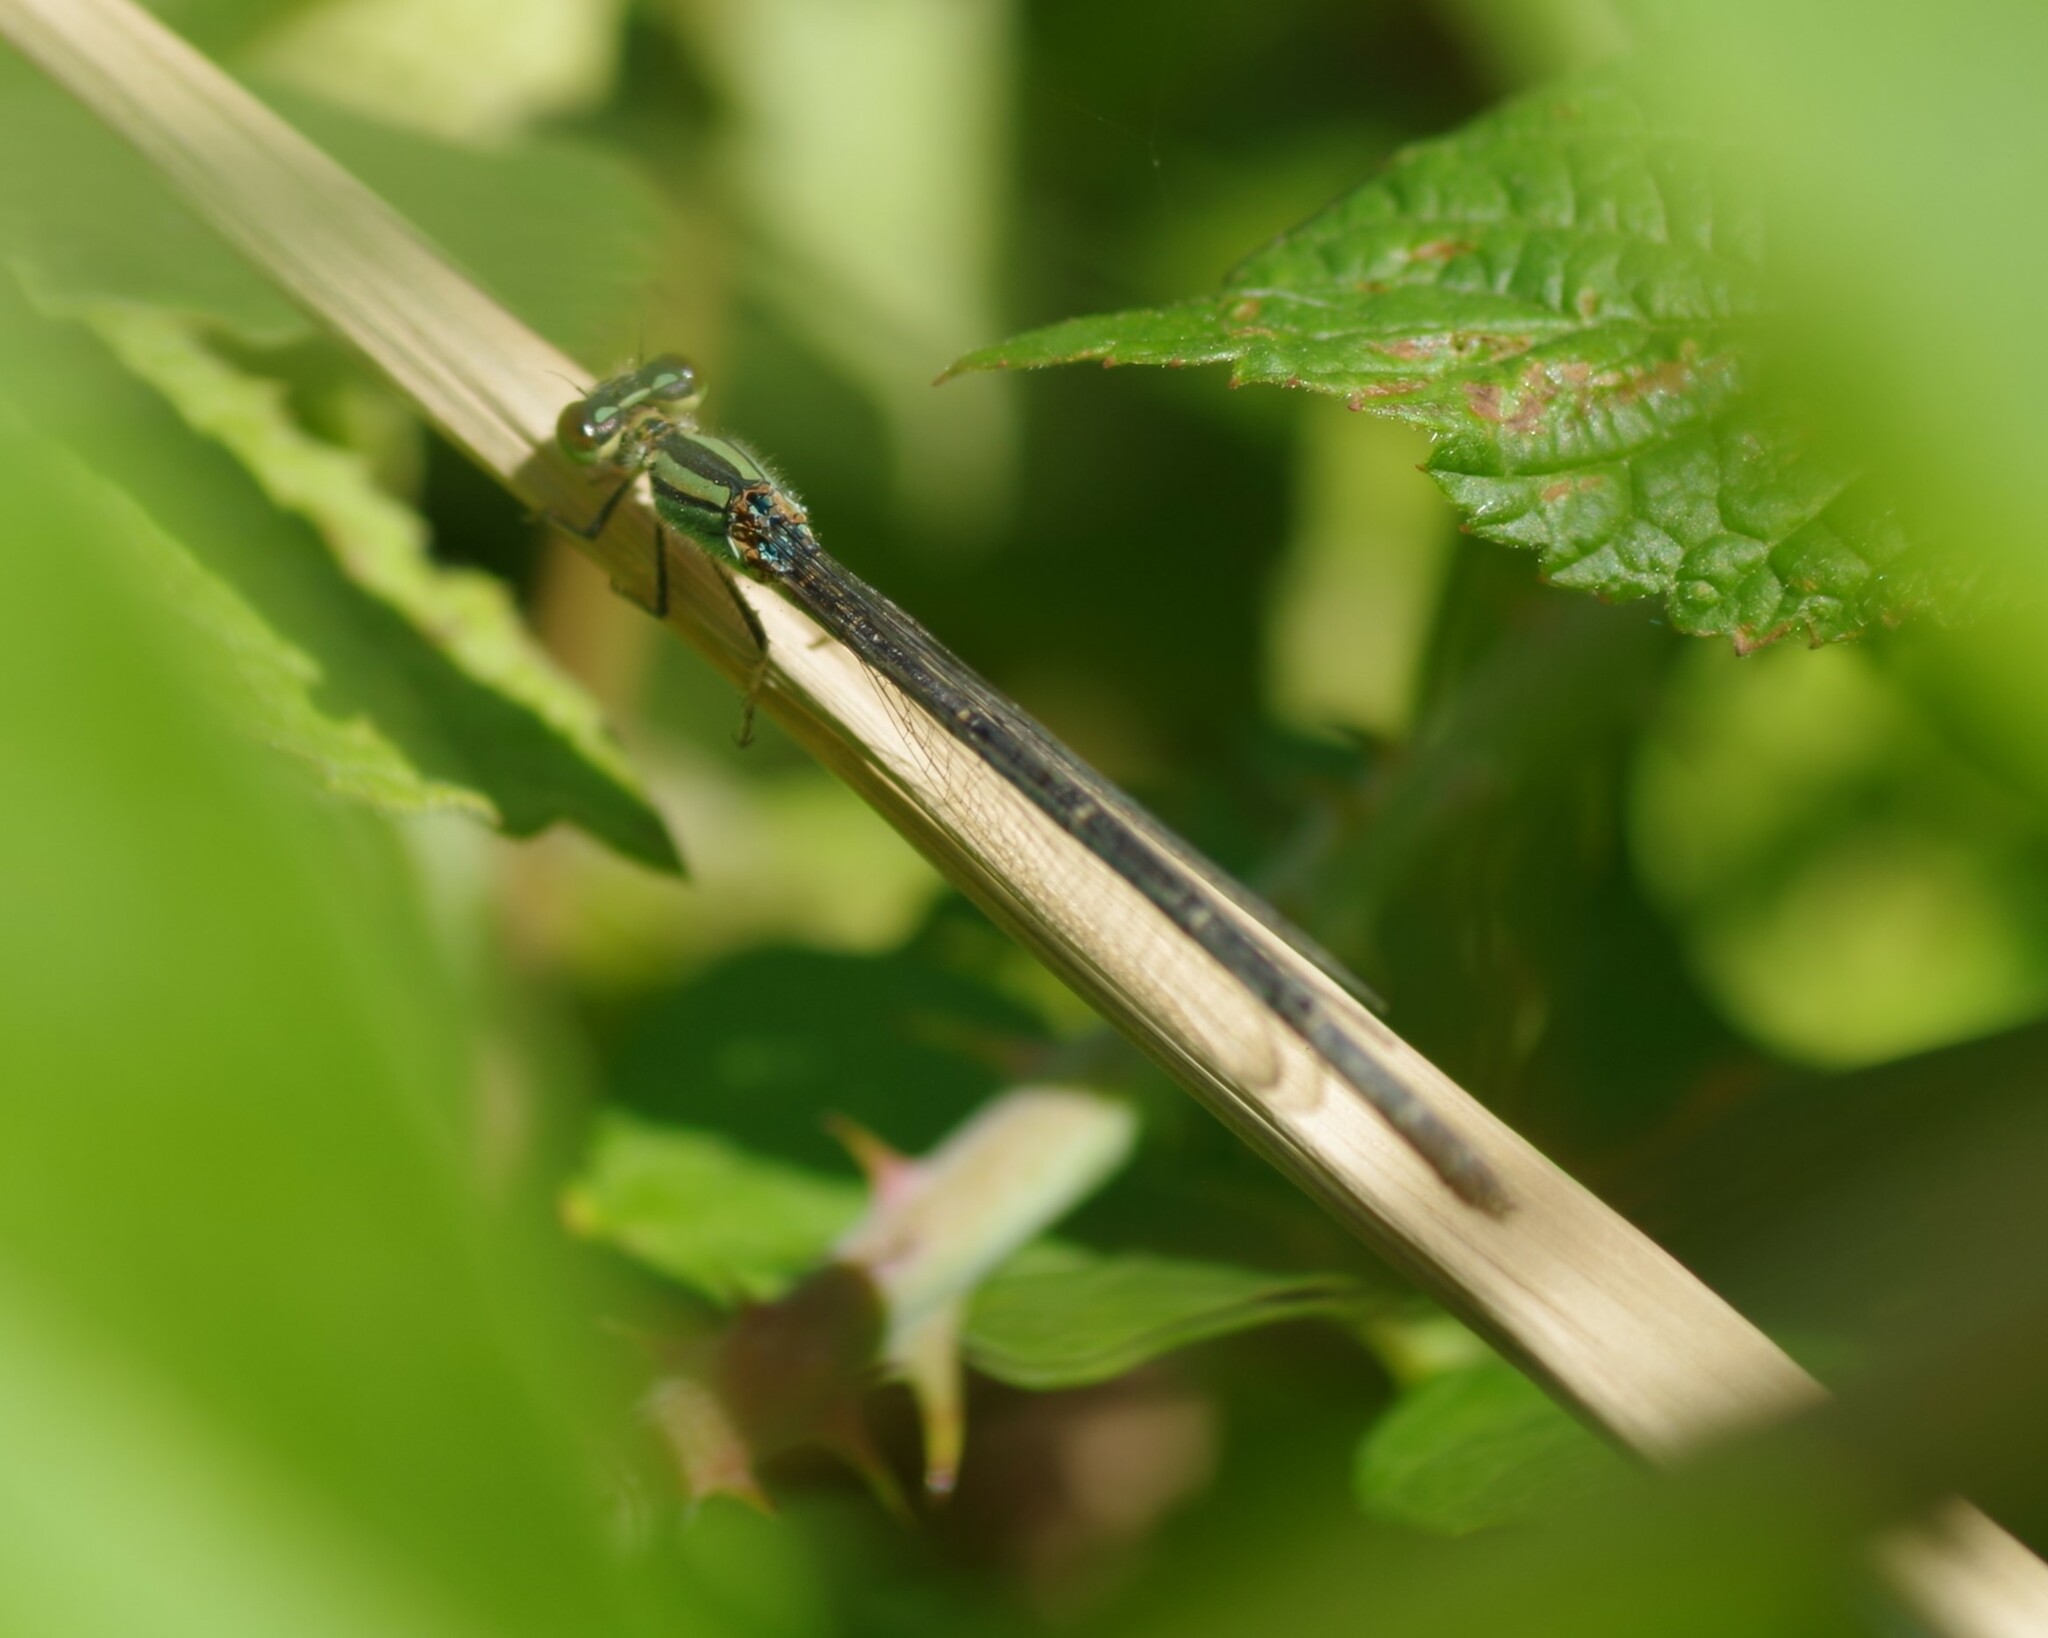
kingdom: Animalia
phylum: Arthropoda
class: Insecta
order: Odonata
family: Coenagrionidae
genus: Erythromma
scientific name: Erythromma lindenii
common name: Blue-eye
